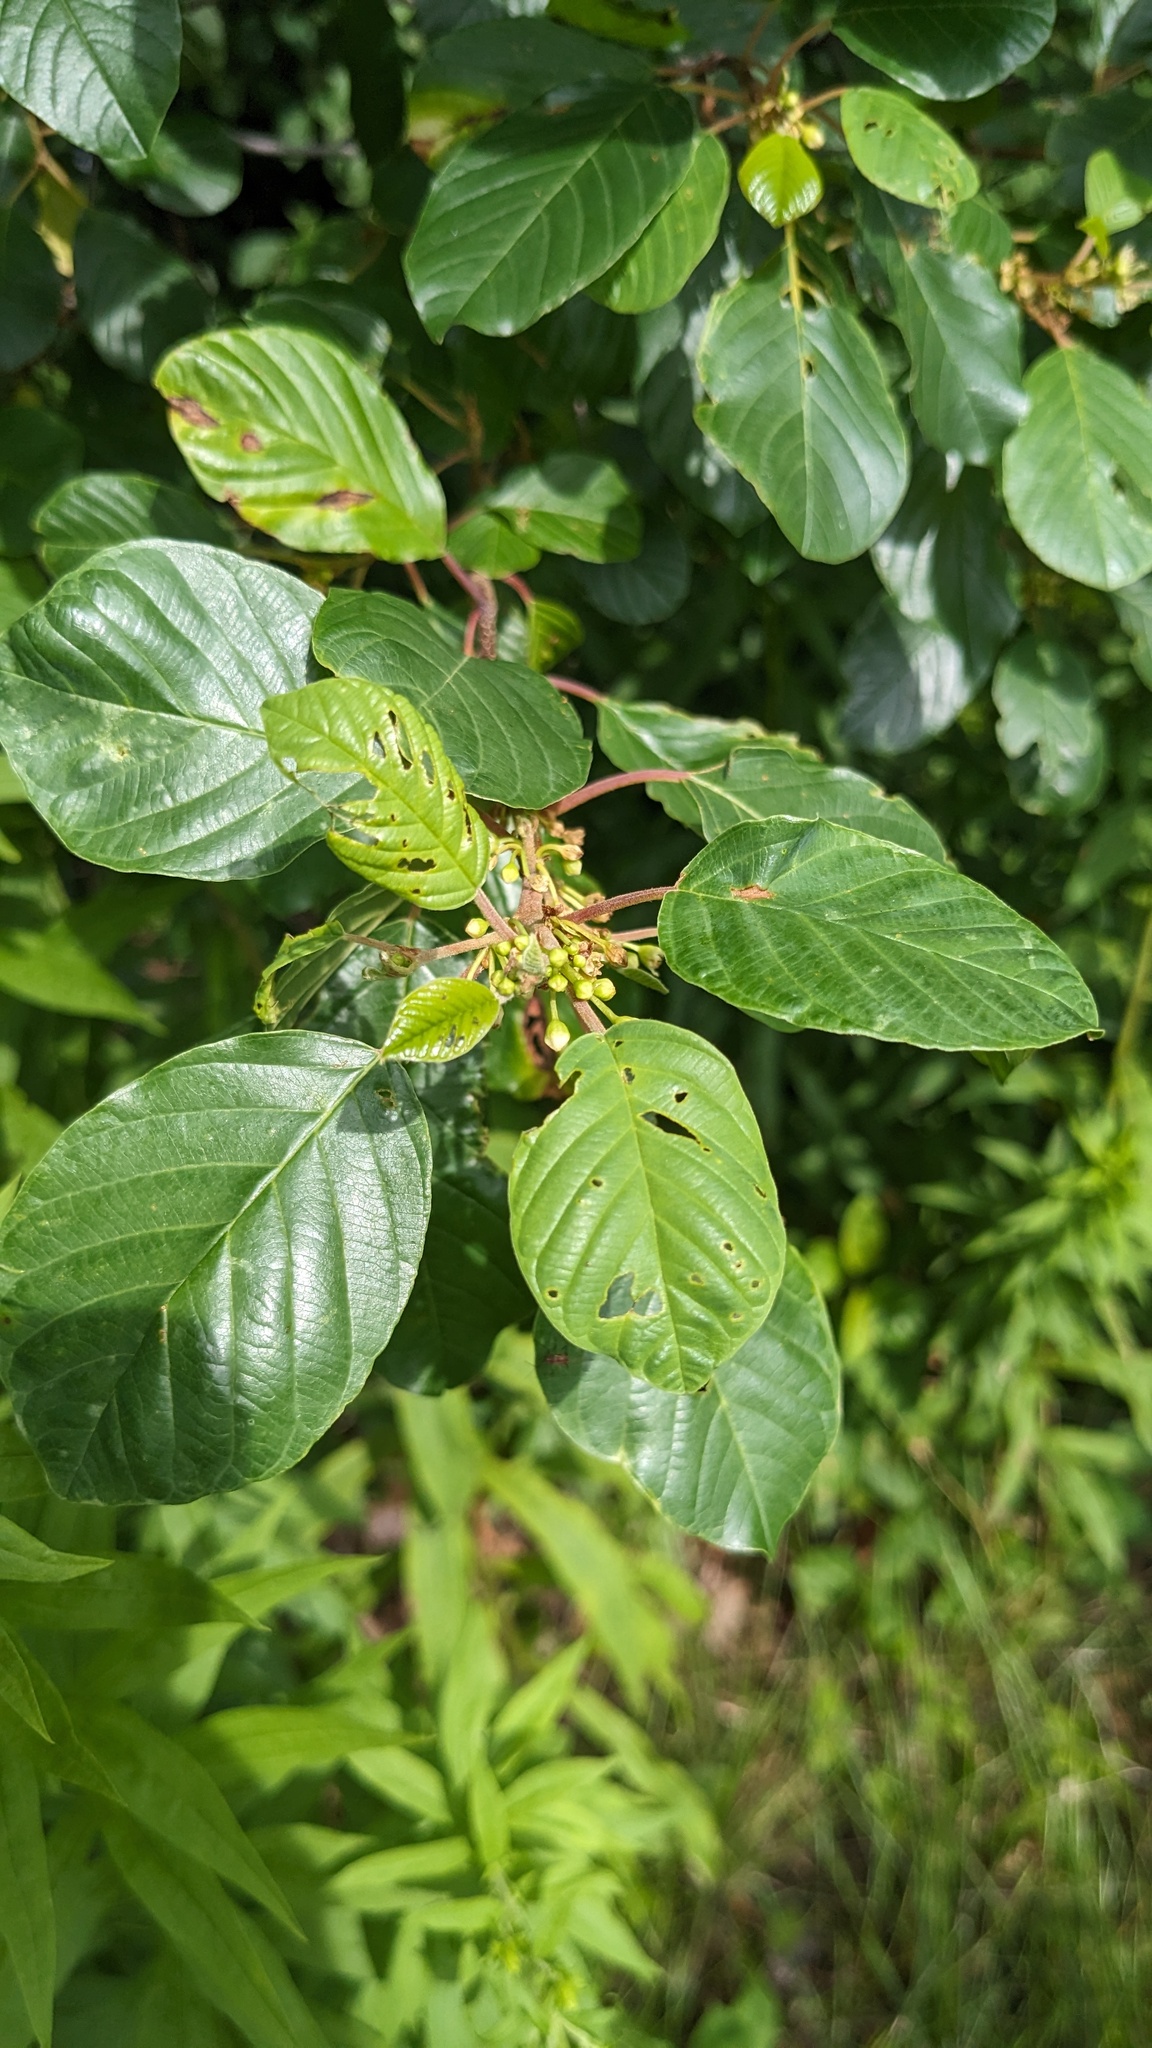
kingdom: Plantae
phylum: Tracheophyta
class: Magnoliopsida
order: Rosales
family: Rhamnaceae
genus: Frangula
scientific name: Frangula alnus
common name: Alder buckthorn
